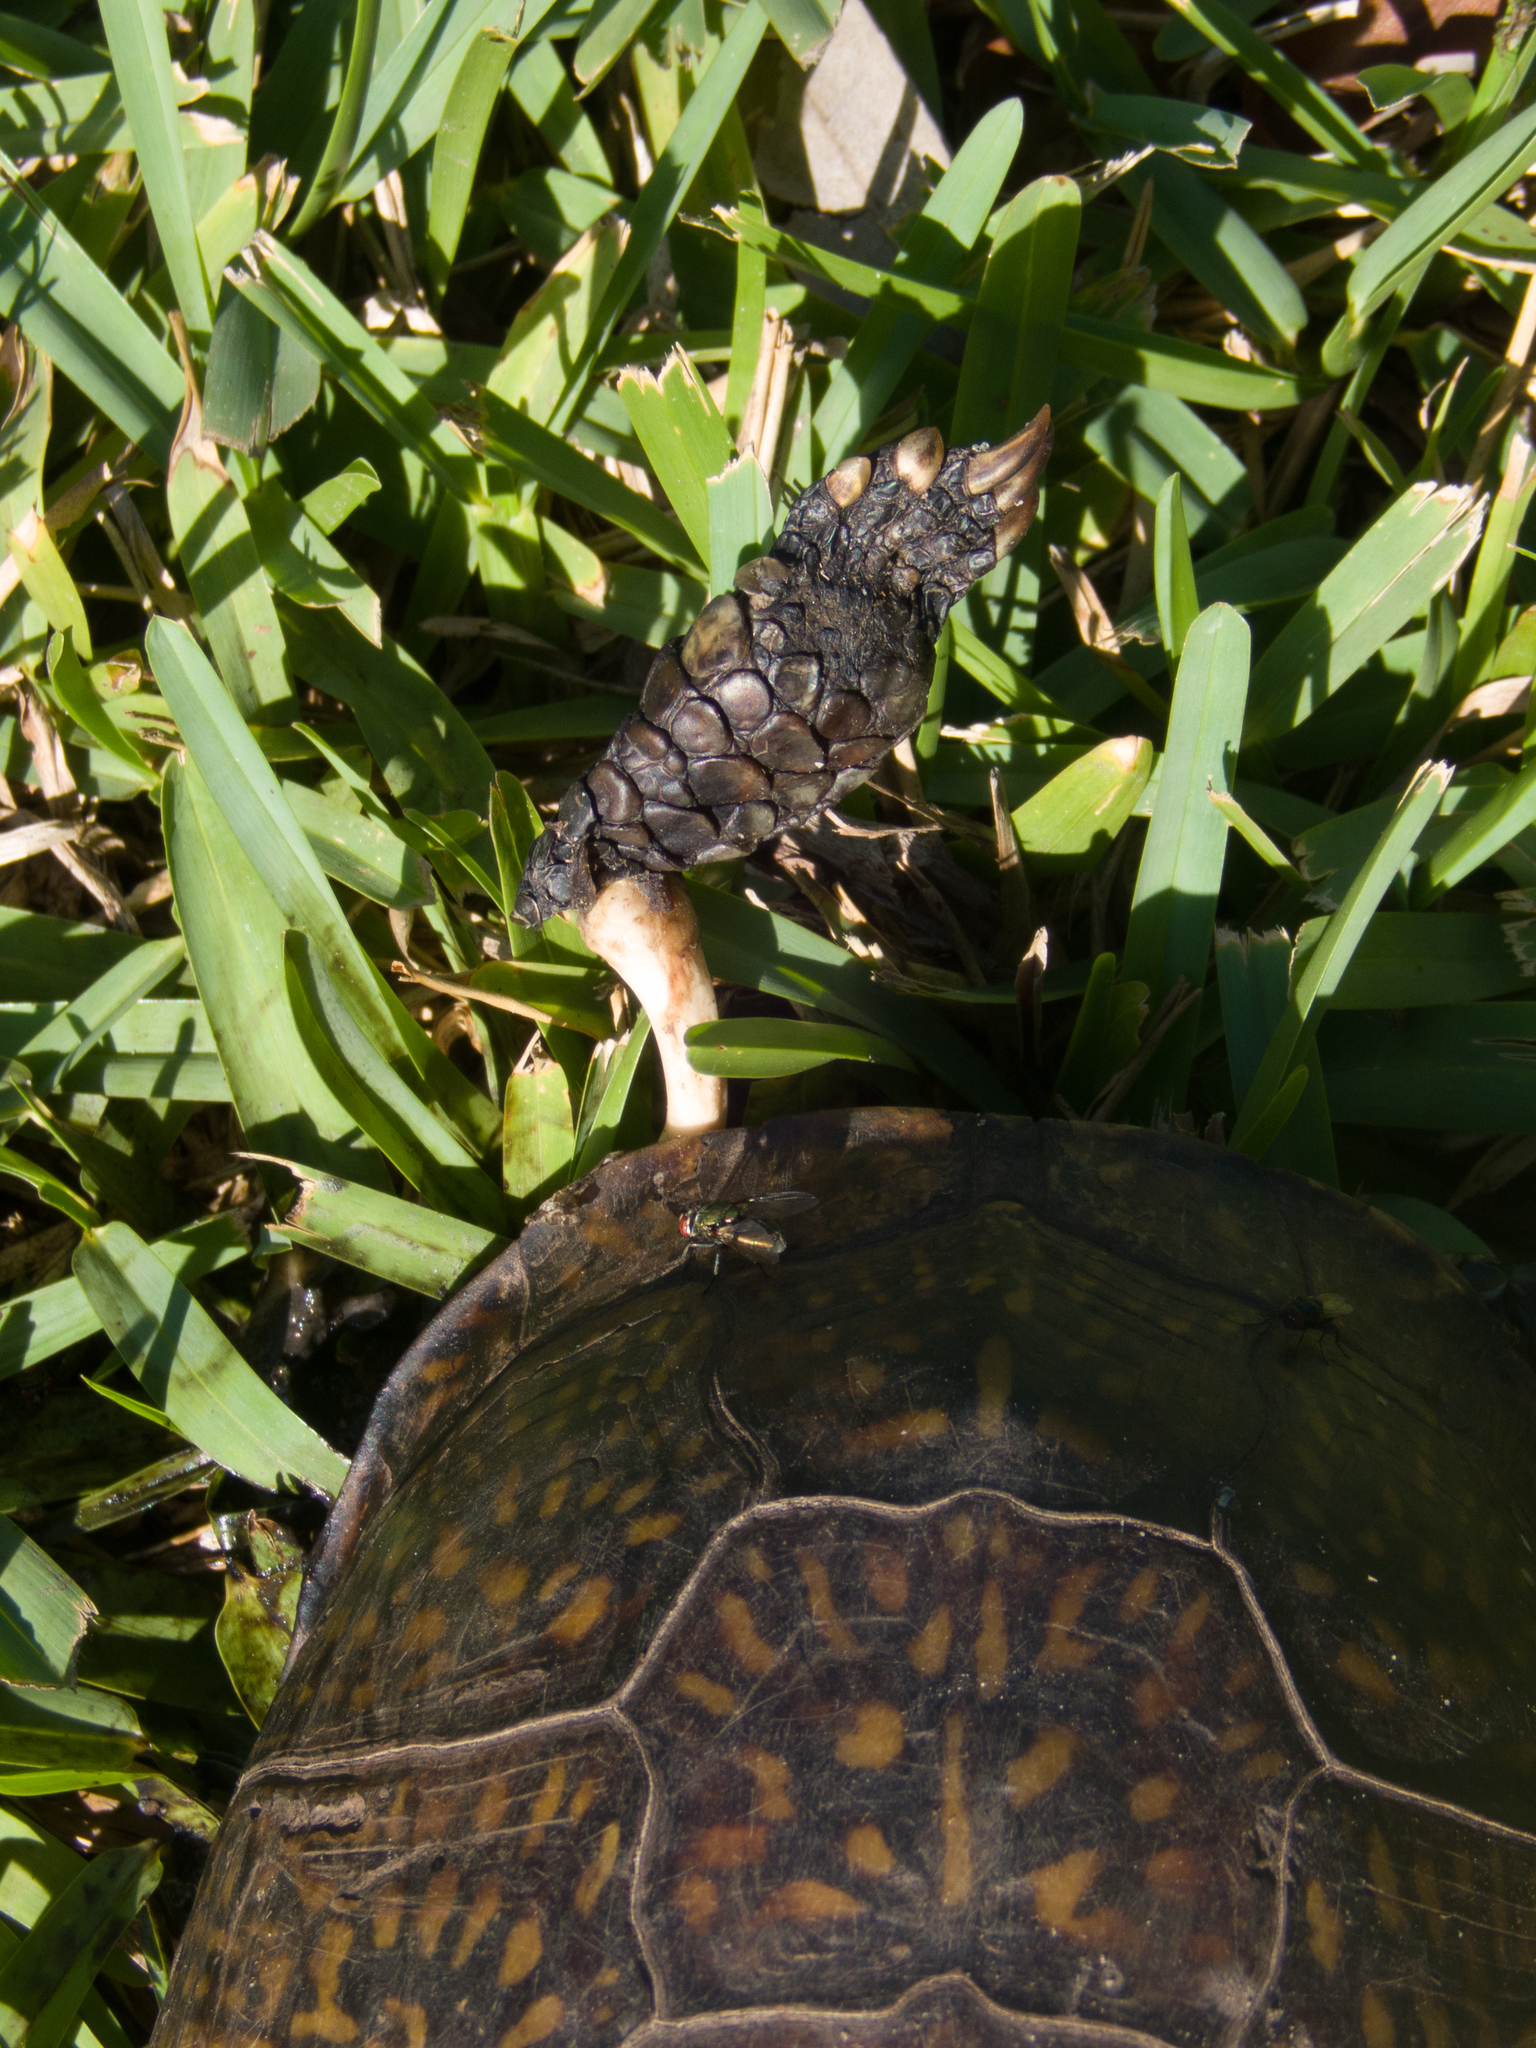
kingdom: Animalia
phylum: Chordata
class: Testudines
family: Emydidae
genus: Terrapene
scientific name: Terrapene carolina
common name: Common box turtle
